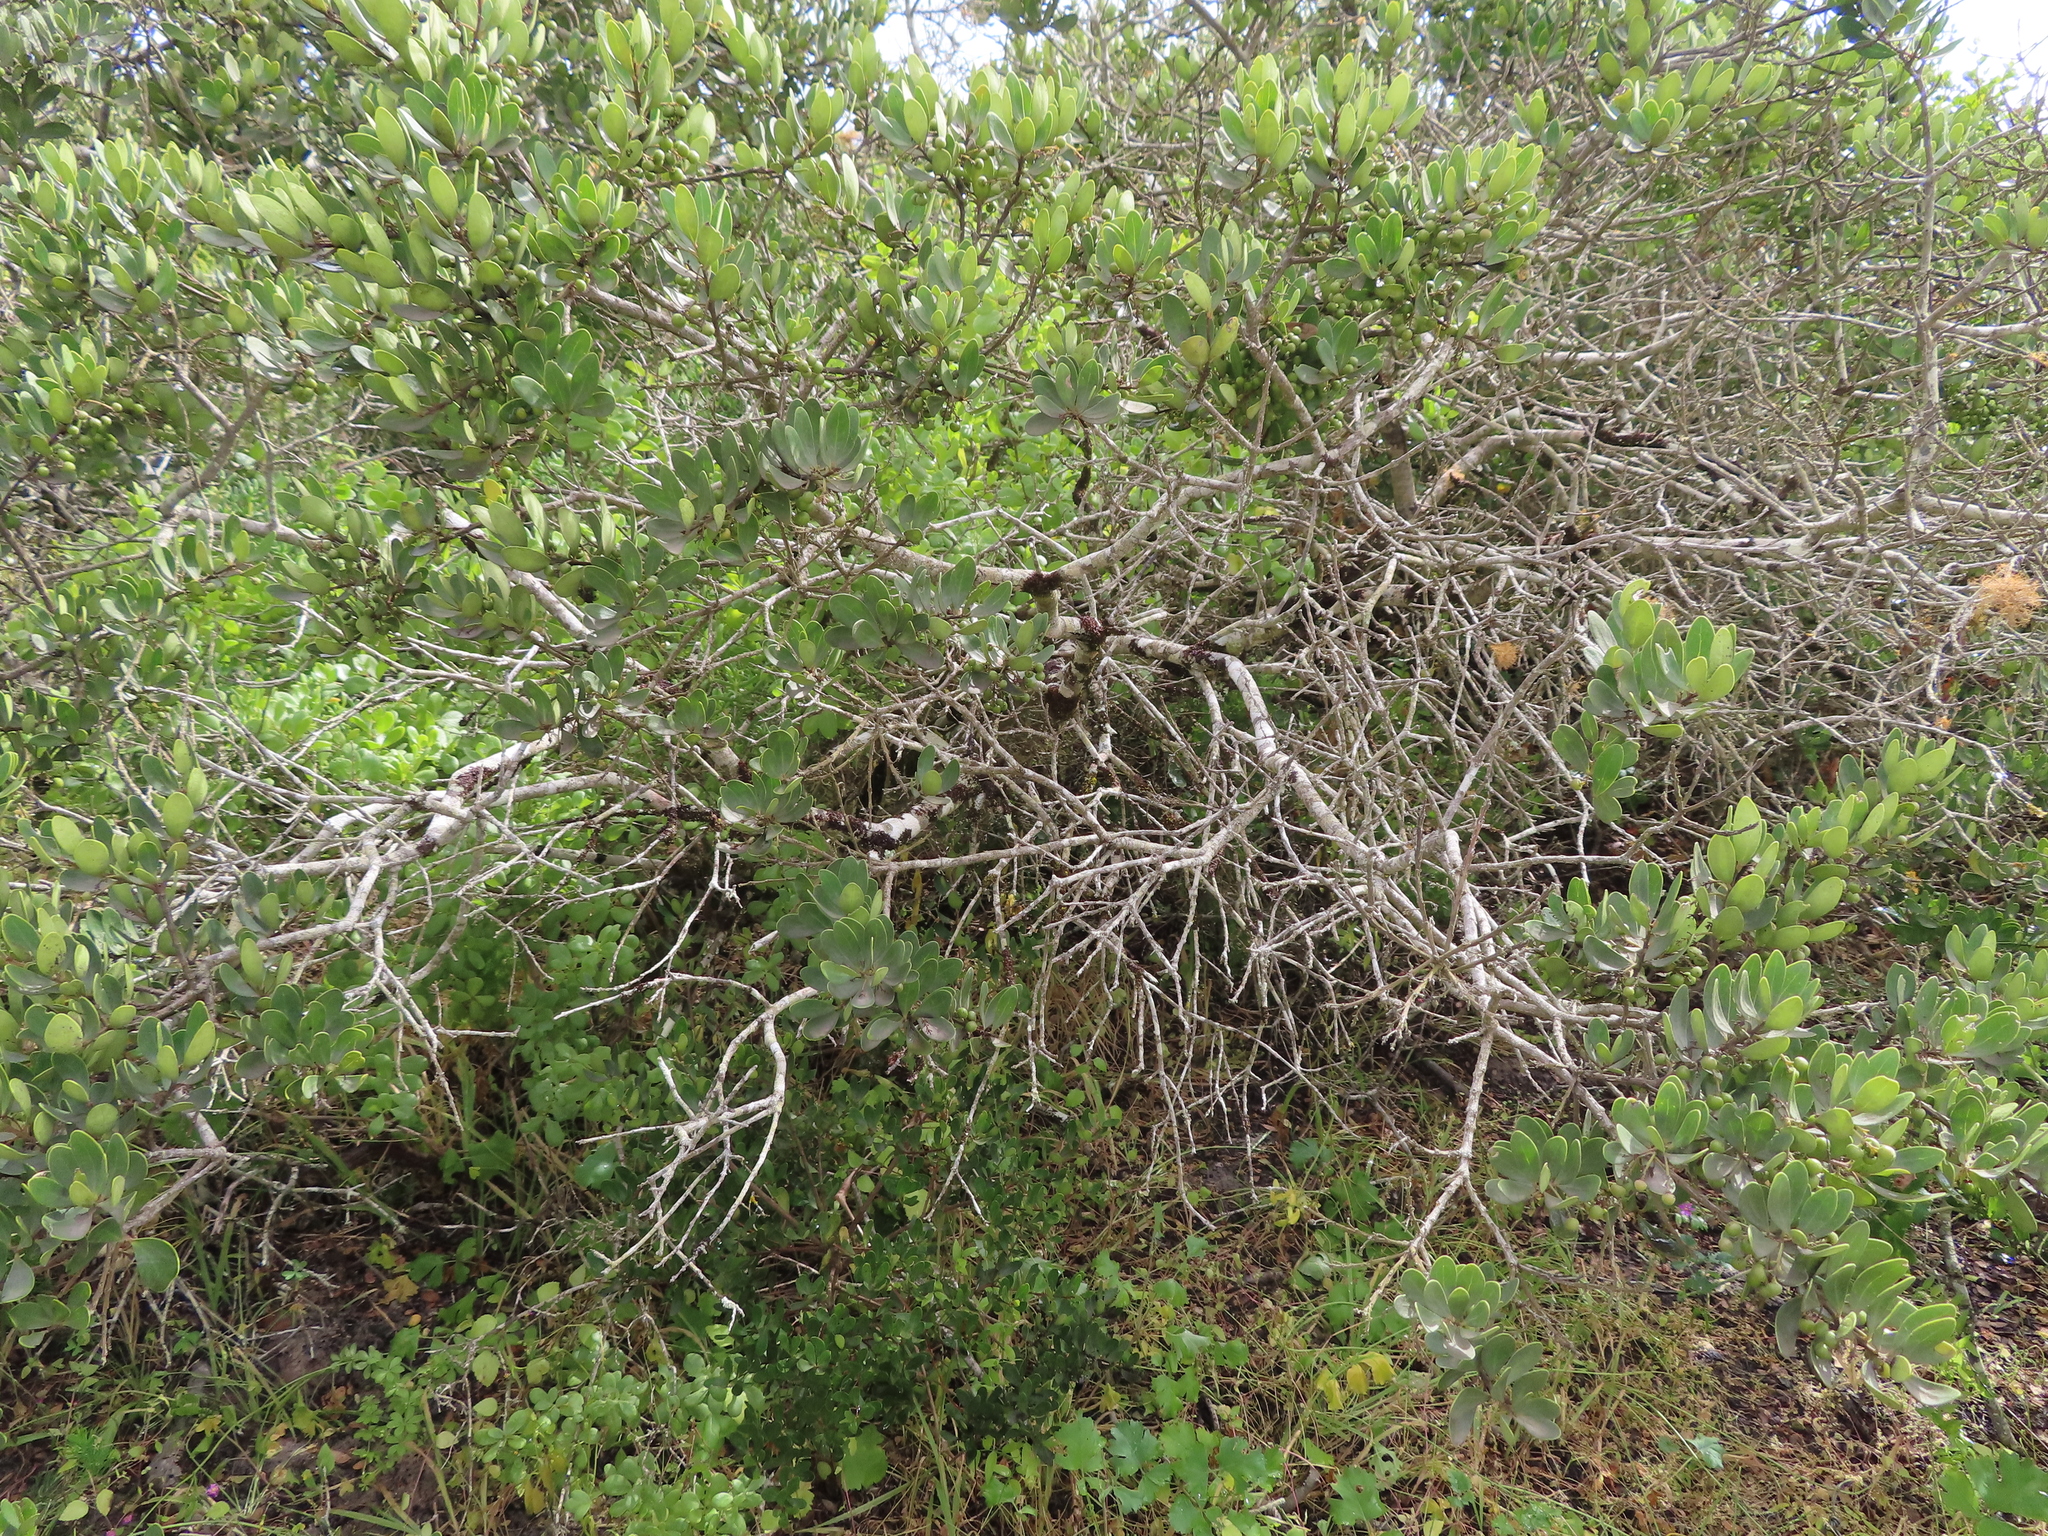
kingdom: Plantae
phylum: Tracheophyta
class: Magnoliopsida
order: Ericales
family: Ebenaceae
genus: Euclea
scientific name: Euclea racemosa
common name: Dune guarri
